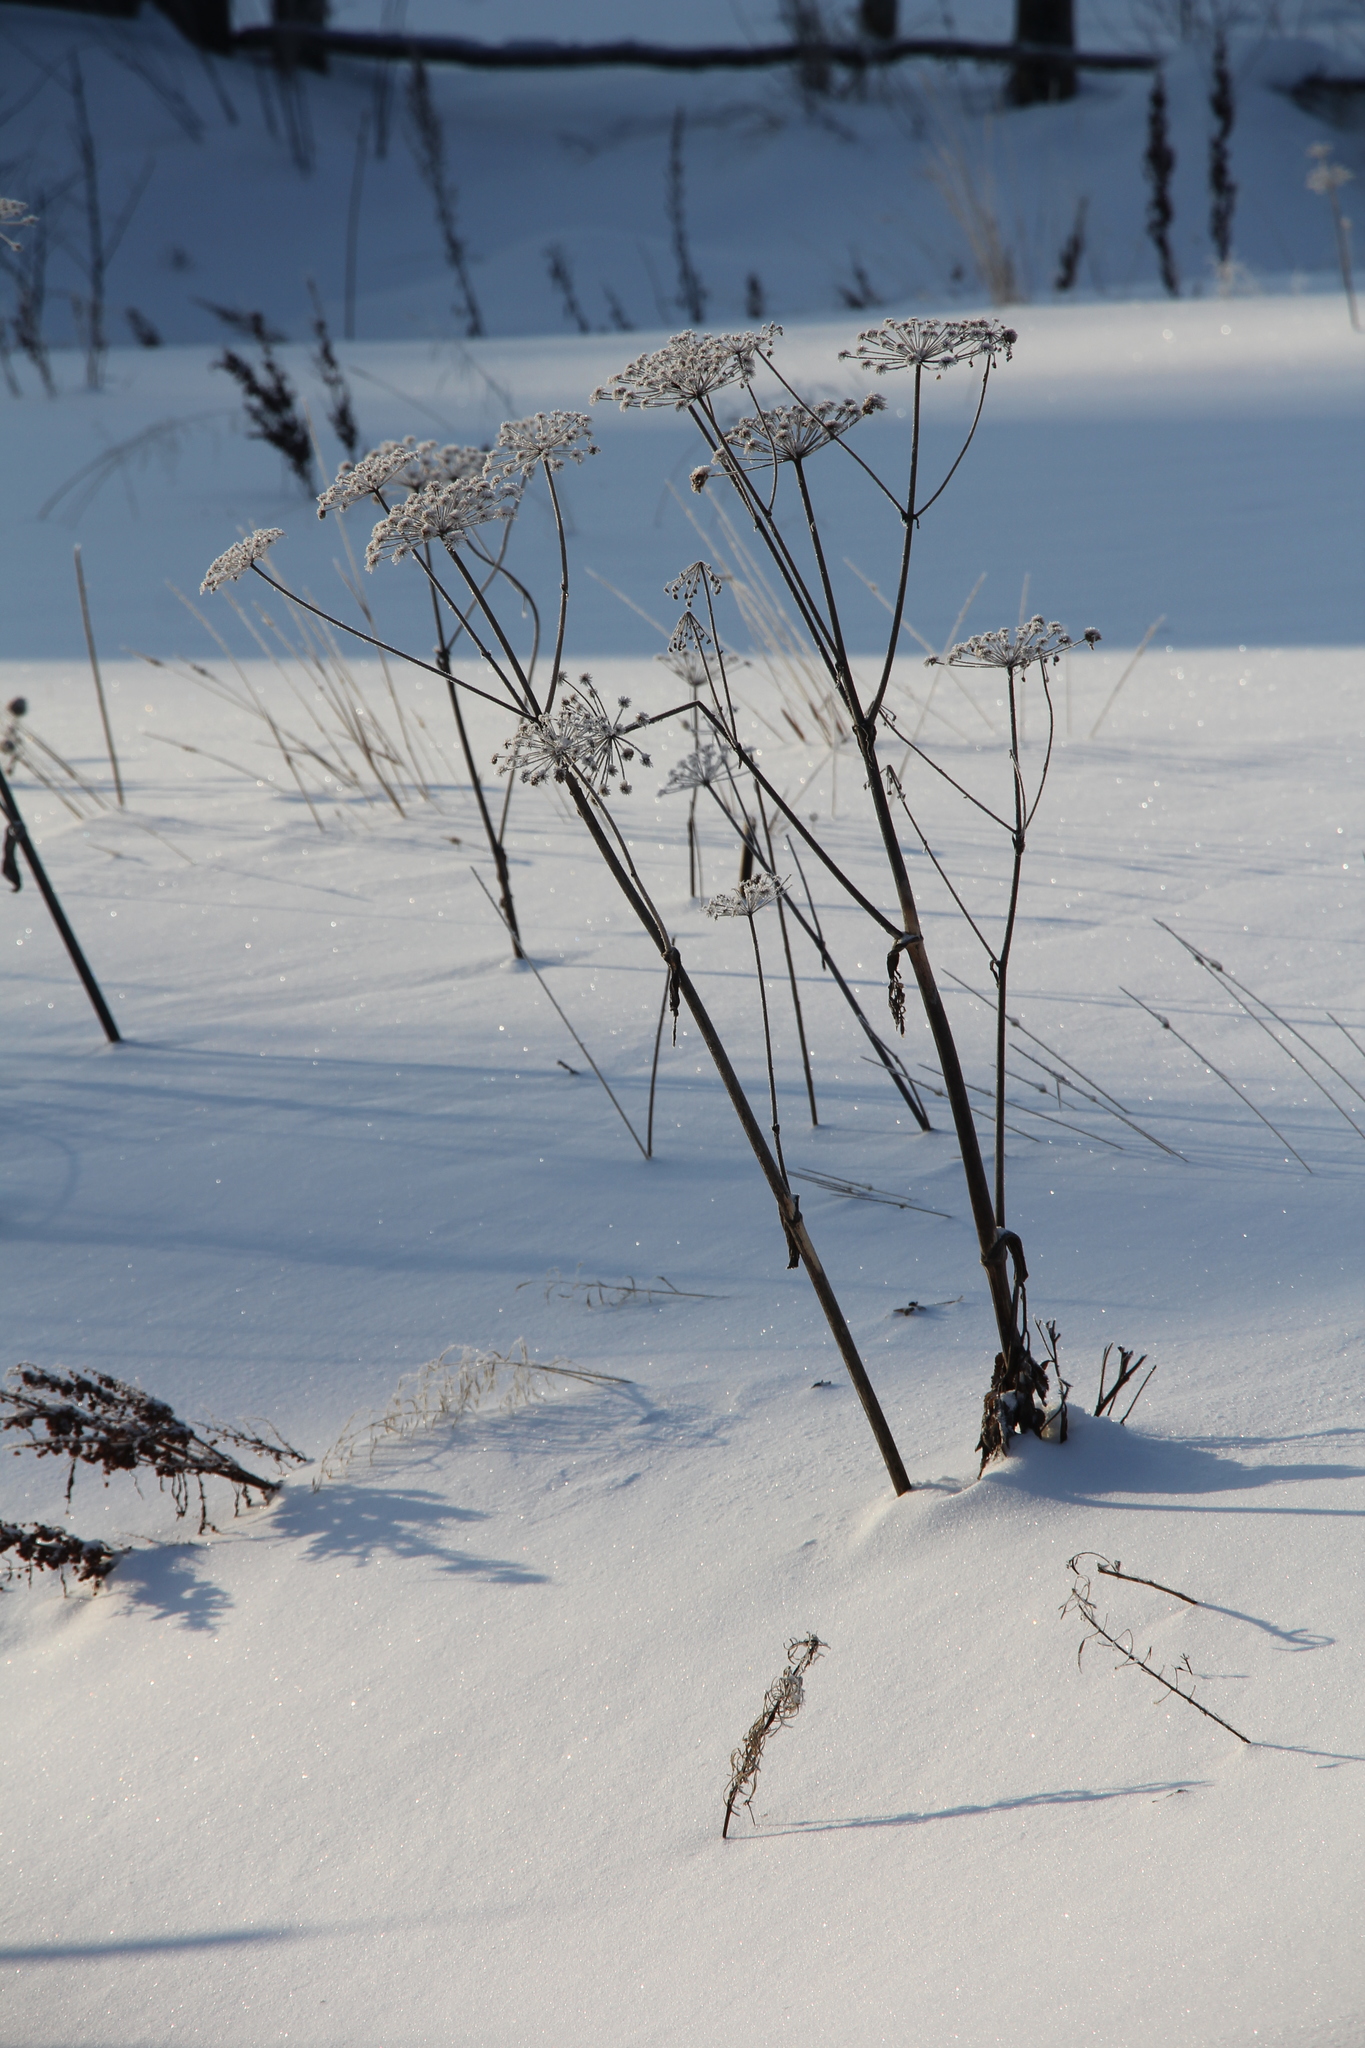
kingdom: Plantae
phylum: Tracheophyta
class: Magnoliopsida
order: Apiales
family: Apiaceae
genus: Angelica
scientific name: Angelica sylvestris
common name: Wild angelica
